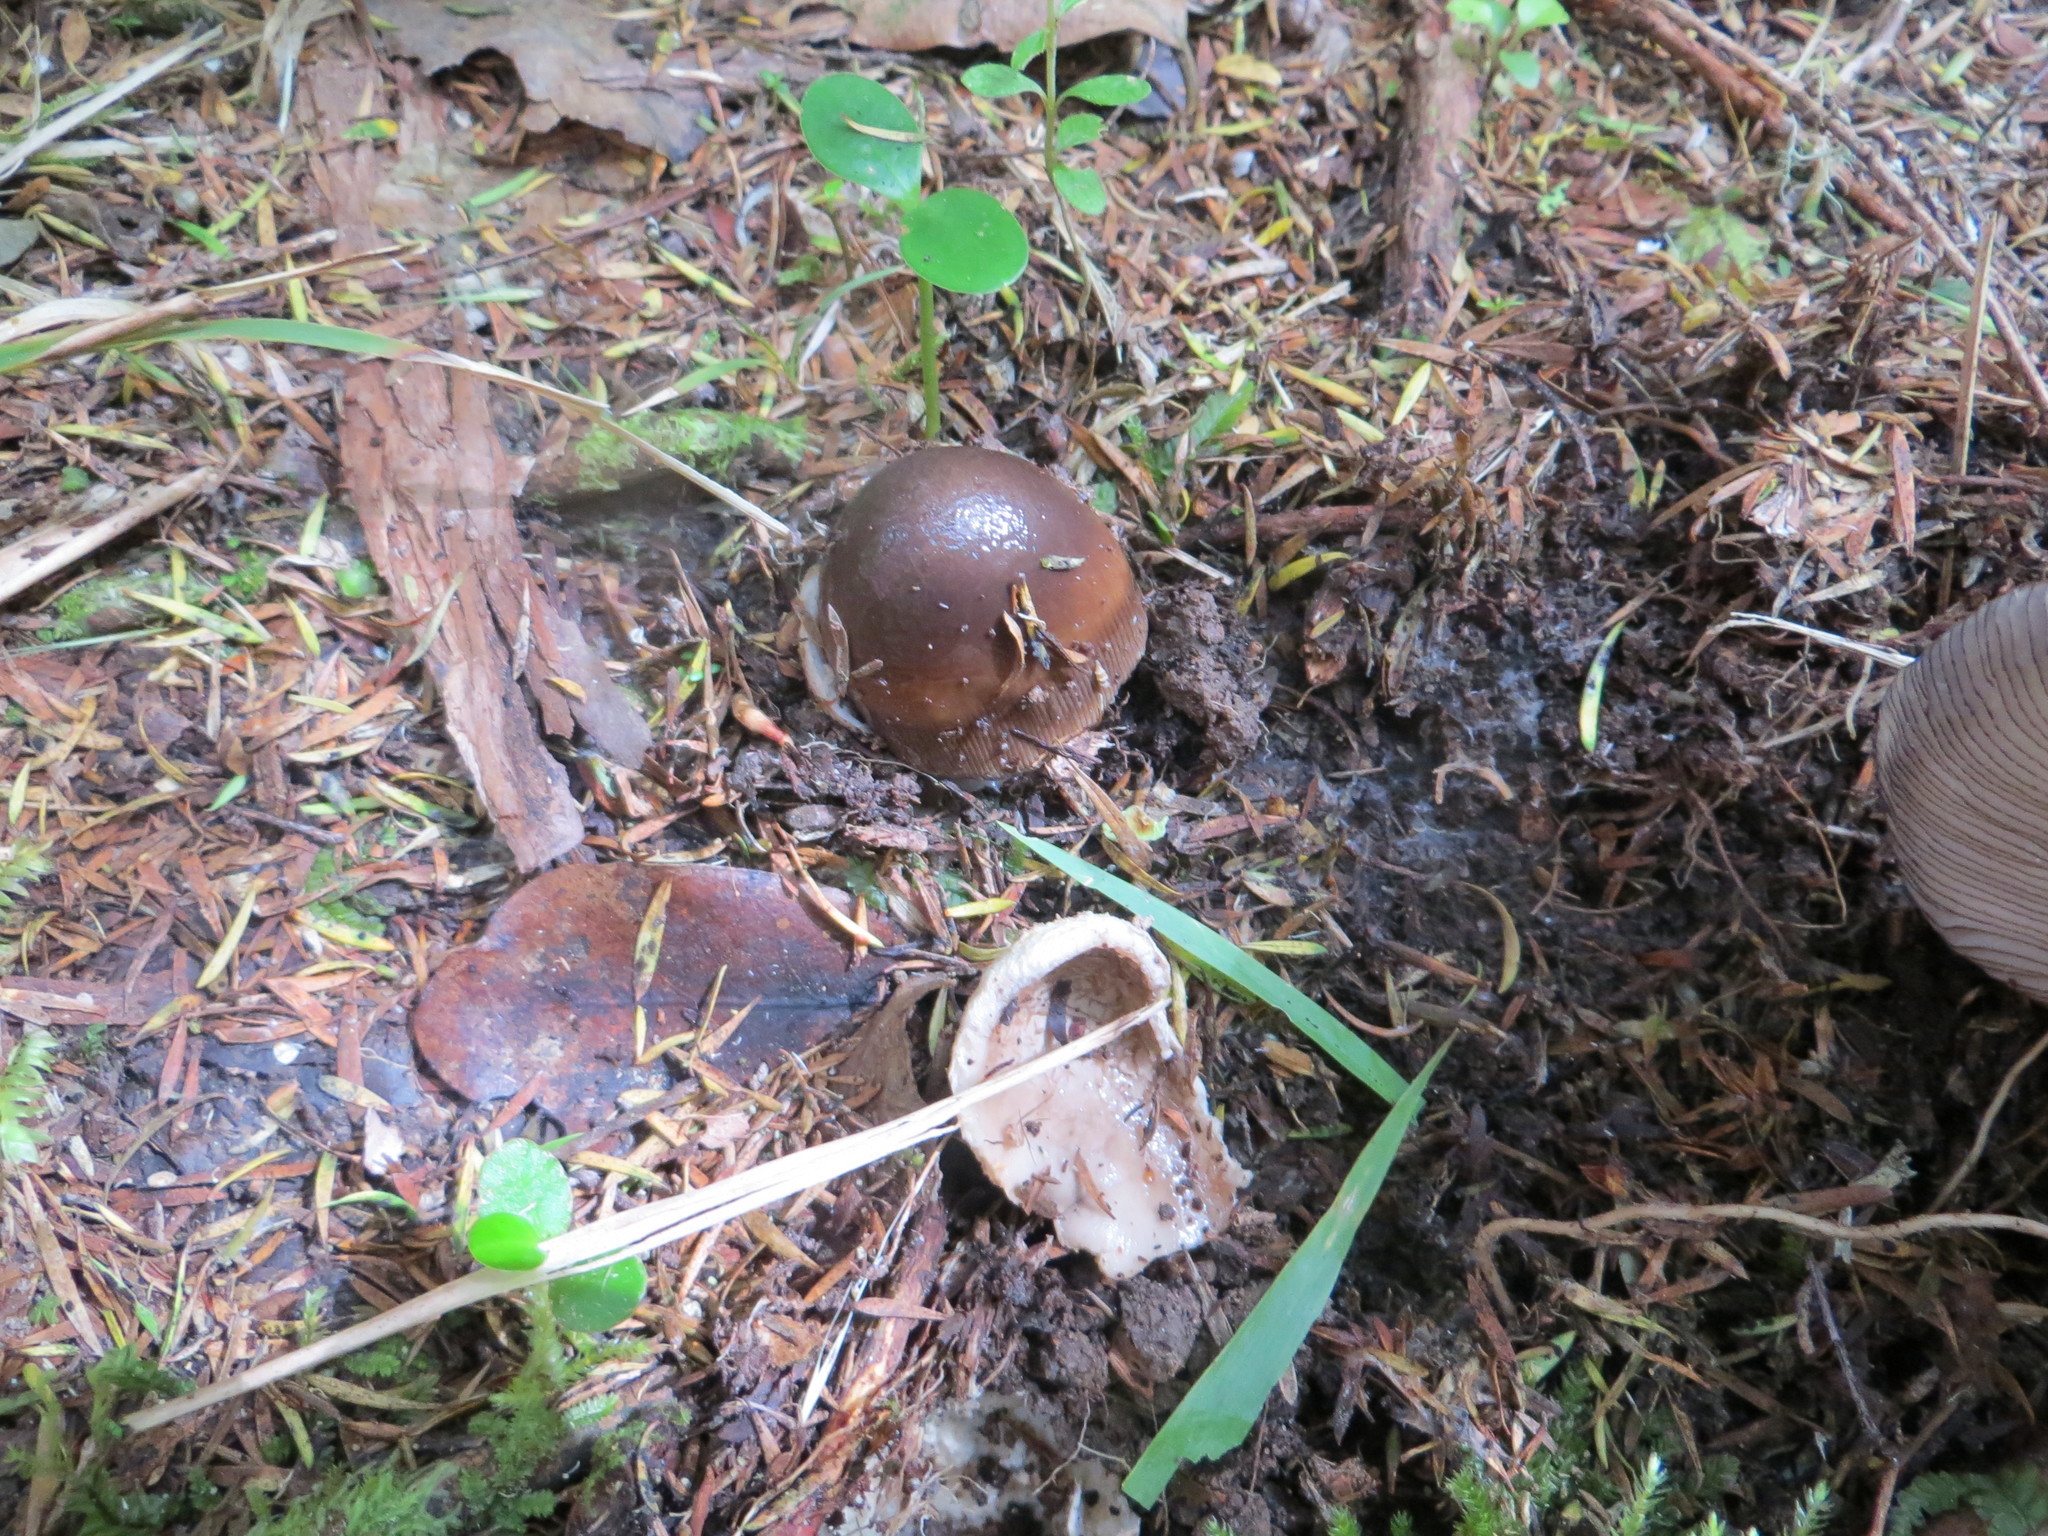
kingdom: Fungi
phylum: Basidiomycota
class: Agaricomycetes
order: Agaricales
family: Amanitaceae
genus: Amanita
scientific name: Amanita pekeoides
